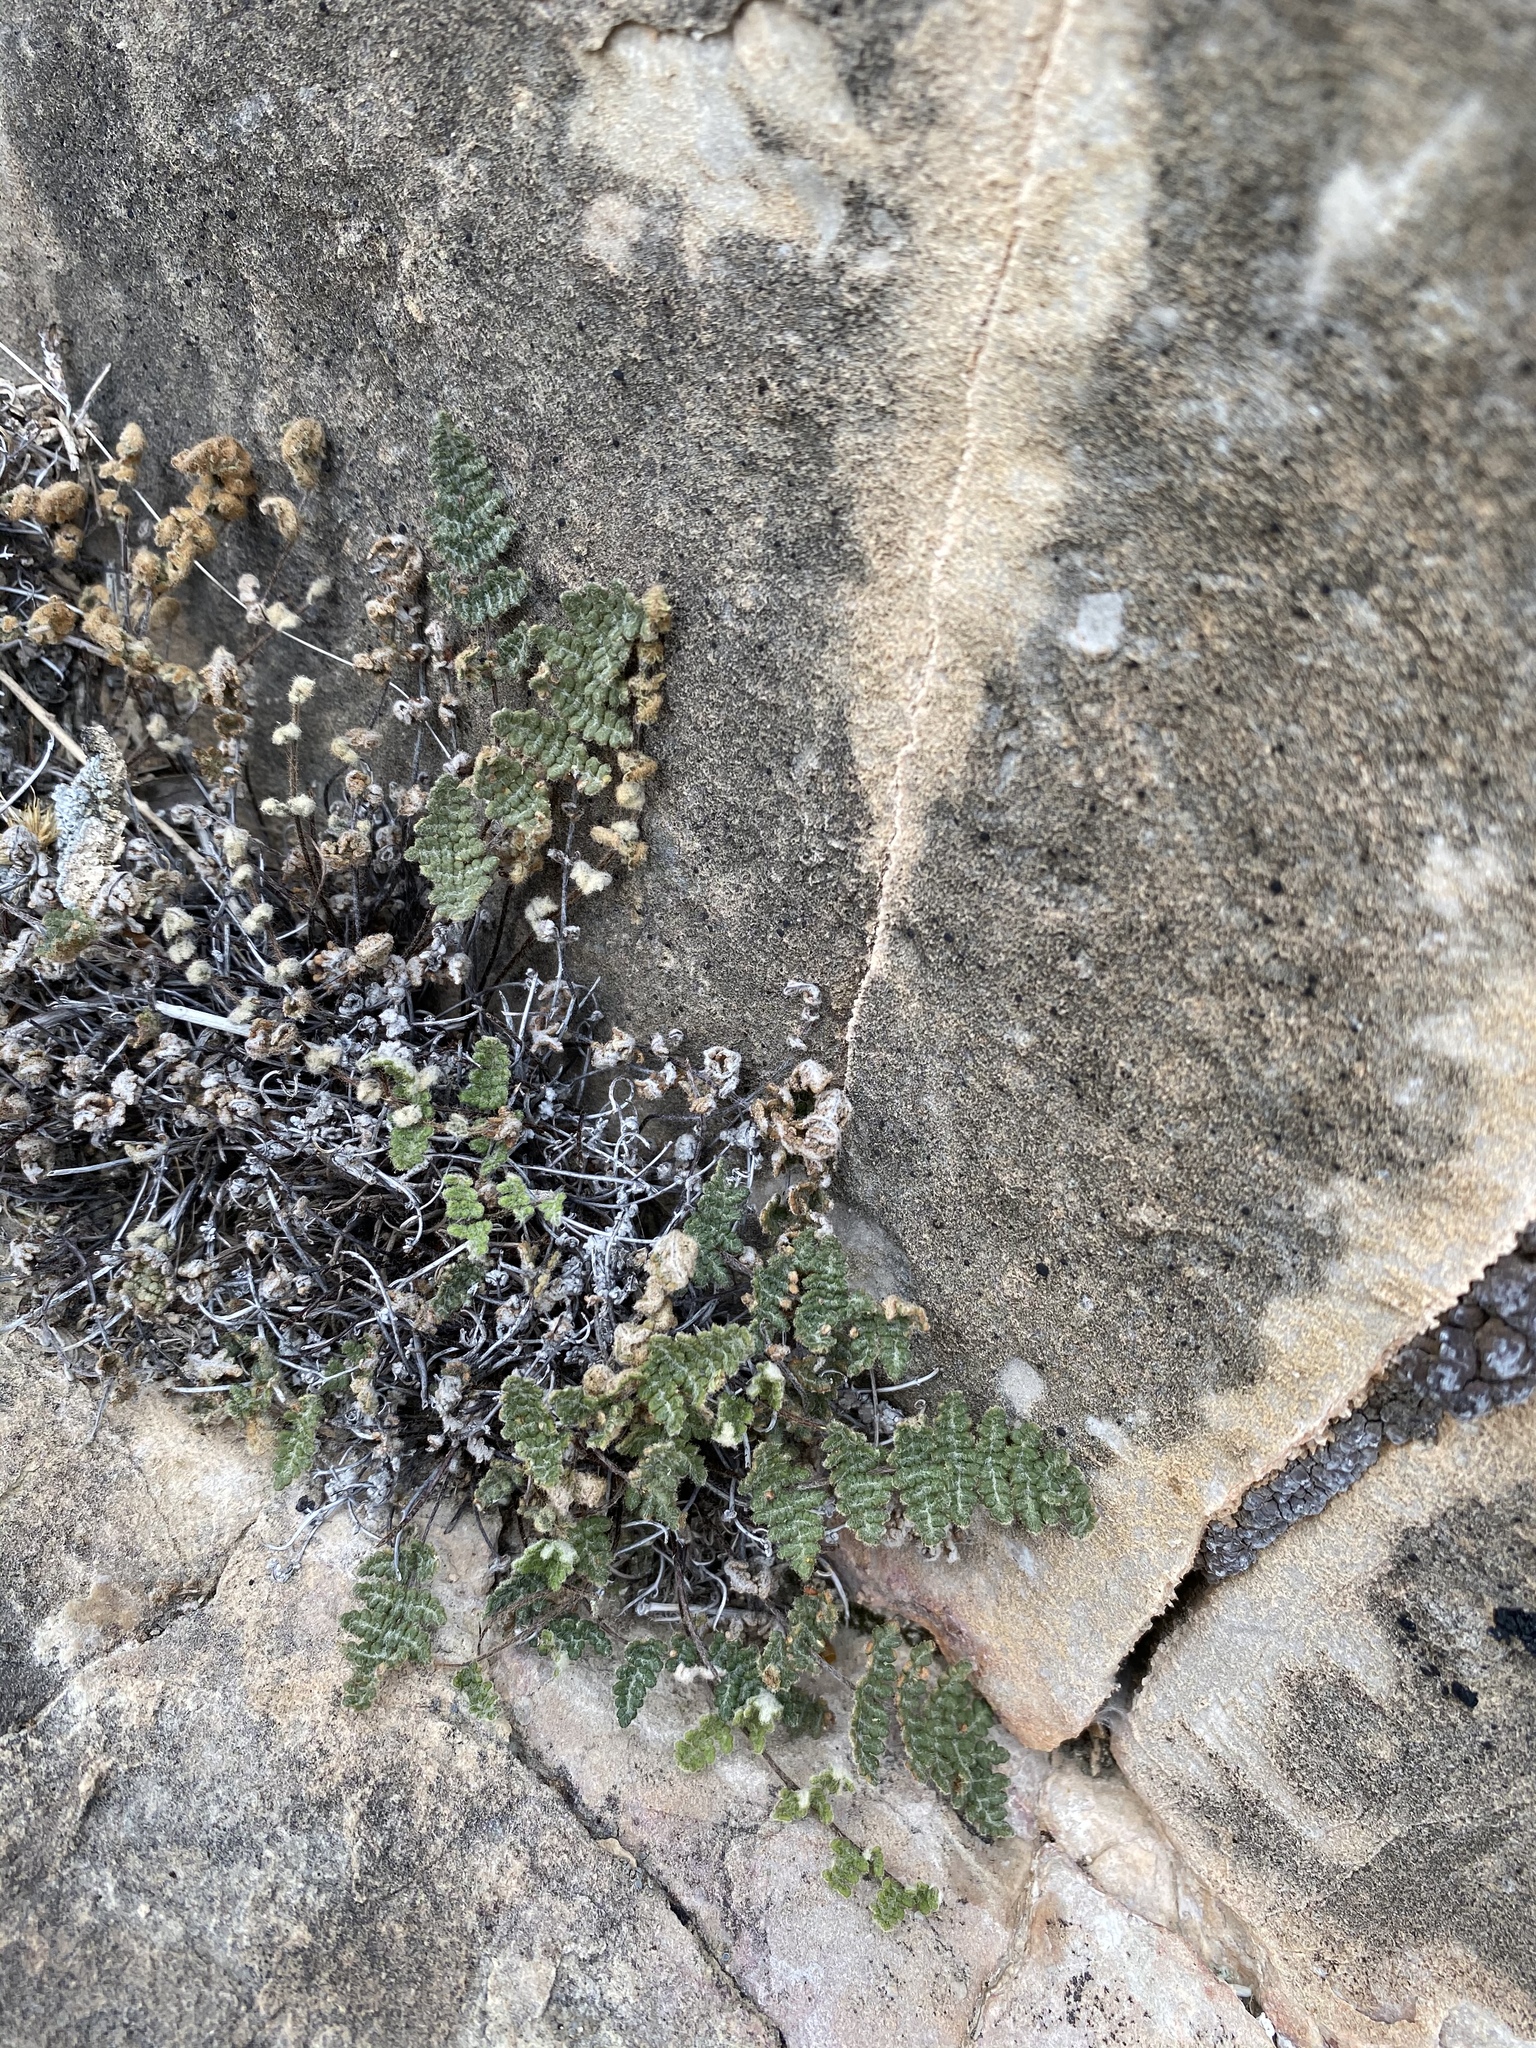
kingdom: Plantae
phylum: Tracheophyta
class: Polypodiopsida
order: Polypodiales
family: Pteridaceae
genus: Myriopteris
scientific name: Myriopteris gracilis
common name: Fee's lip fern
